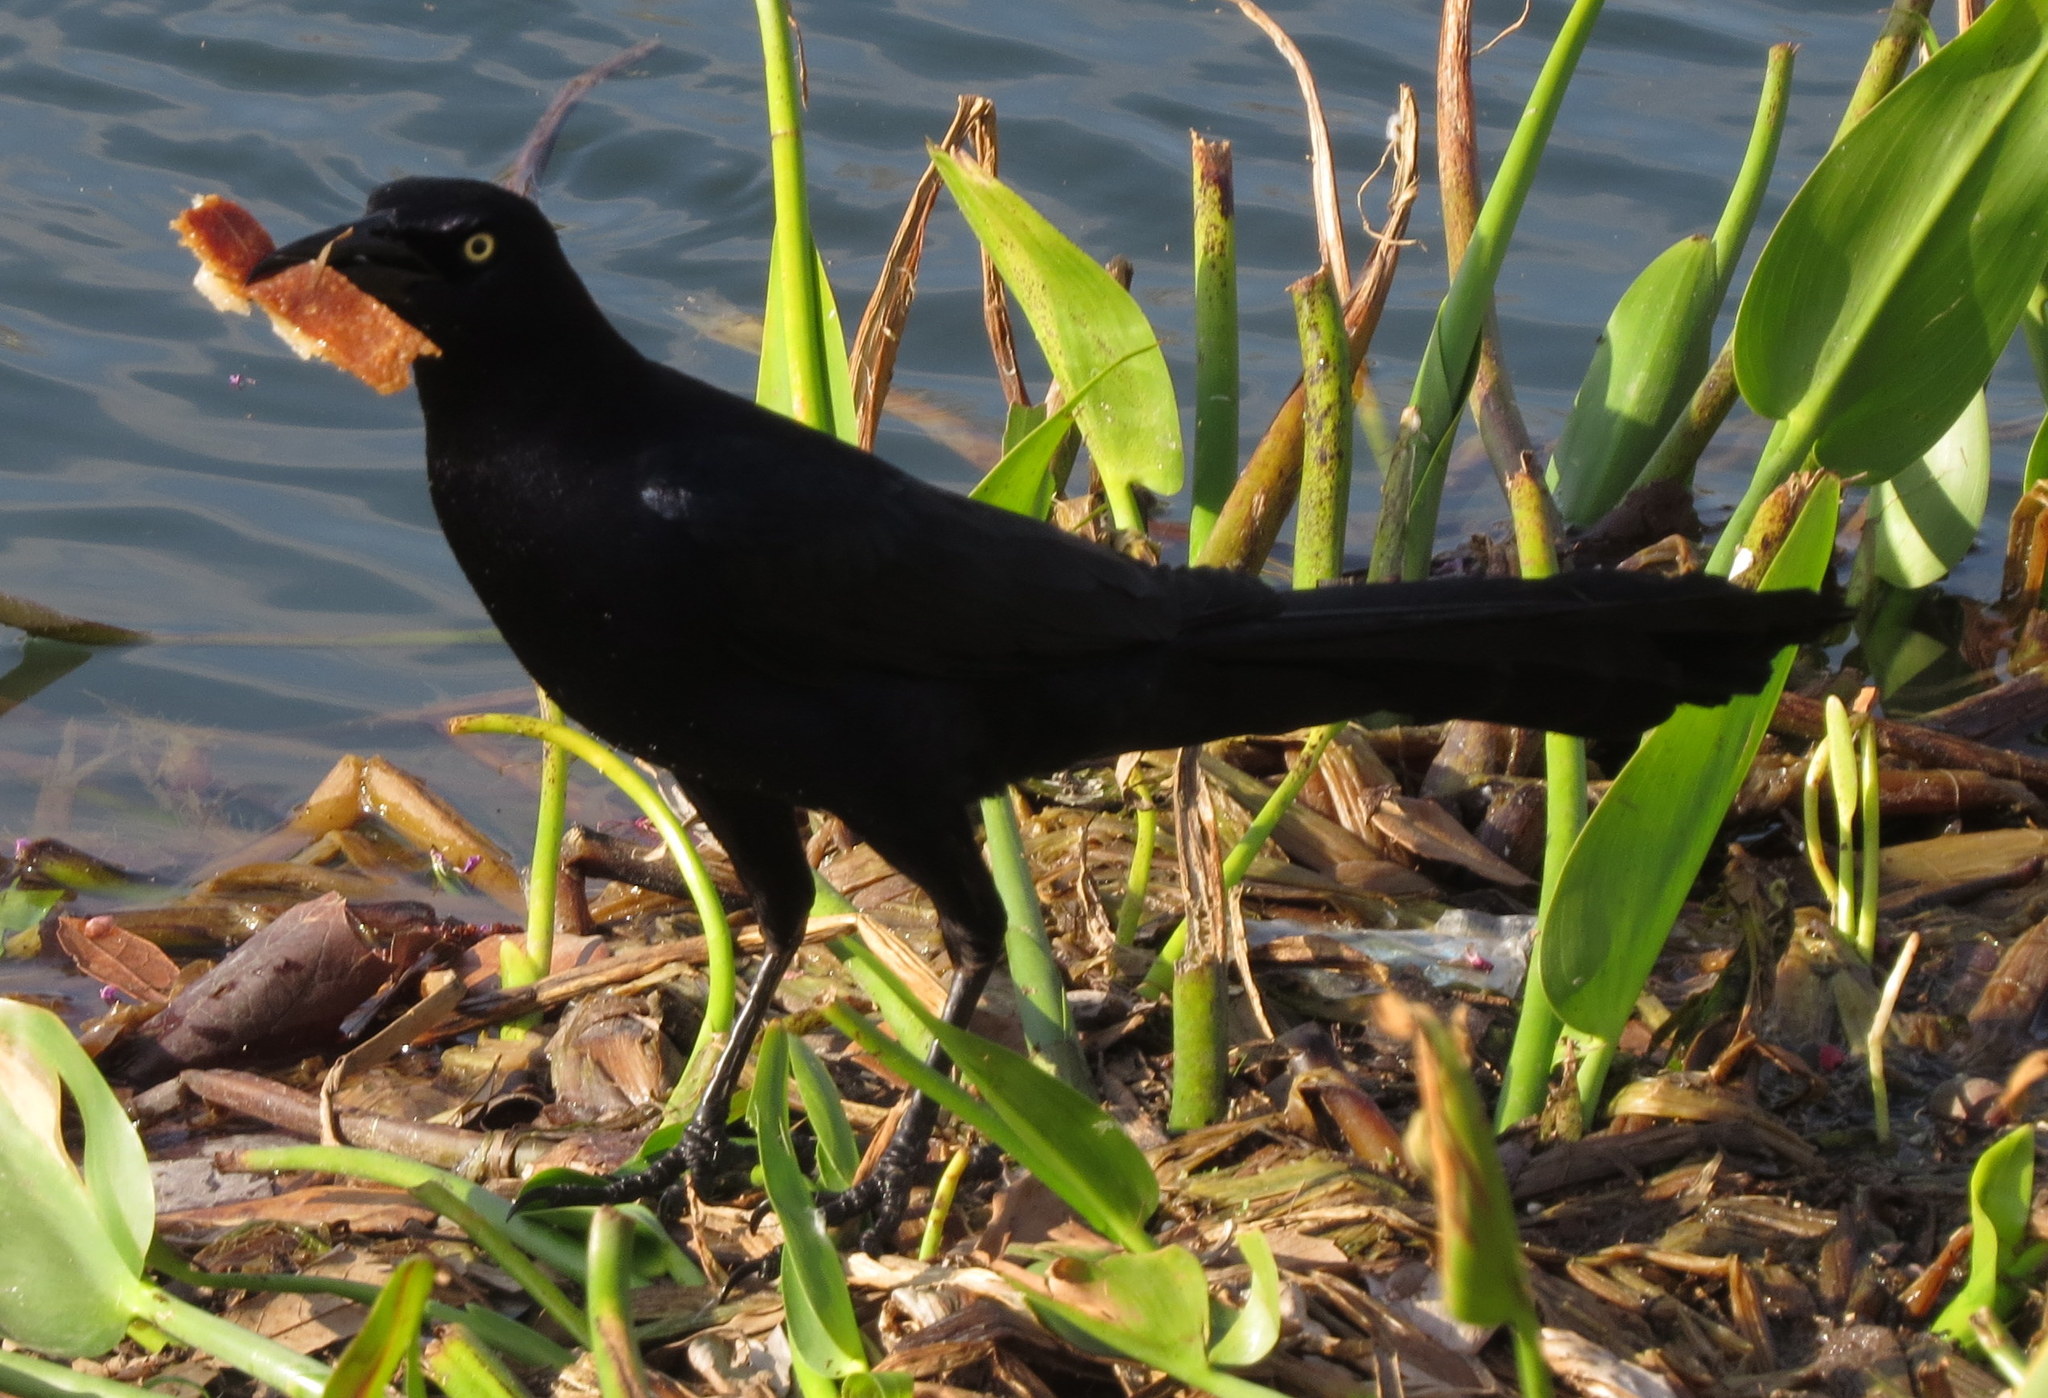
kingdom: Animalia
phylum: Chordata
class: Aves
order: Passeriformes
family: Icteridae
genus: Quiscalus
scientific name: Quiscalus mexicanus
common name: Great-tailed grackle
